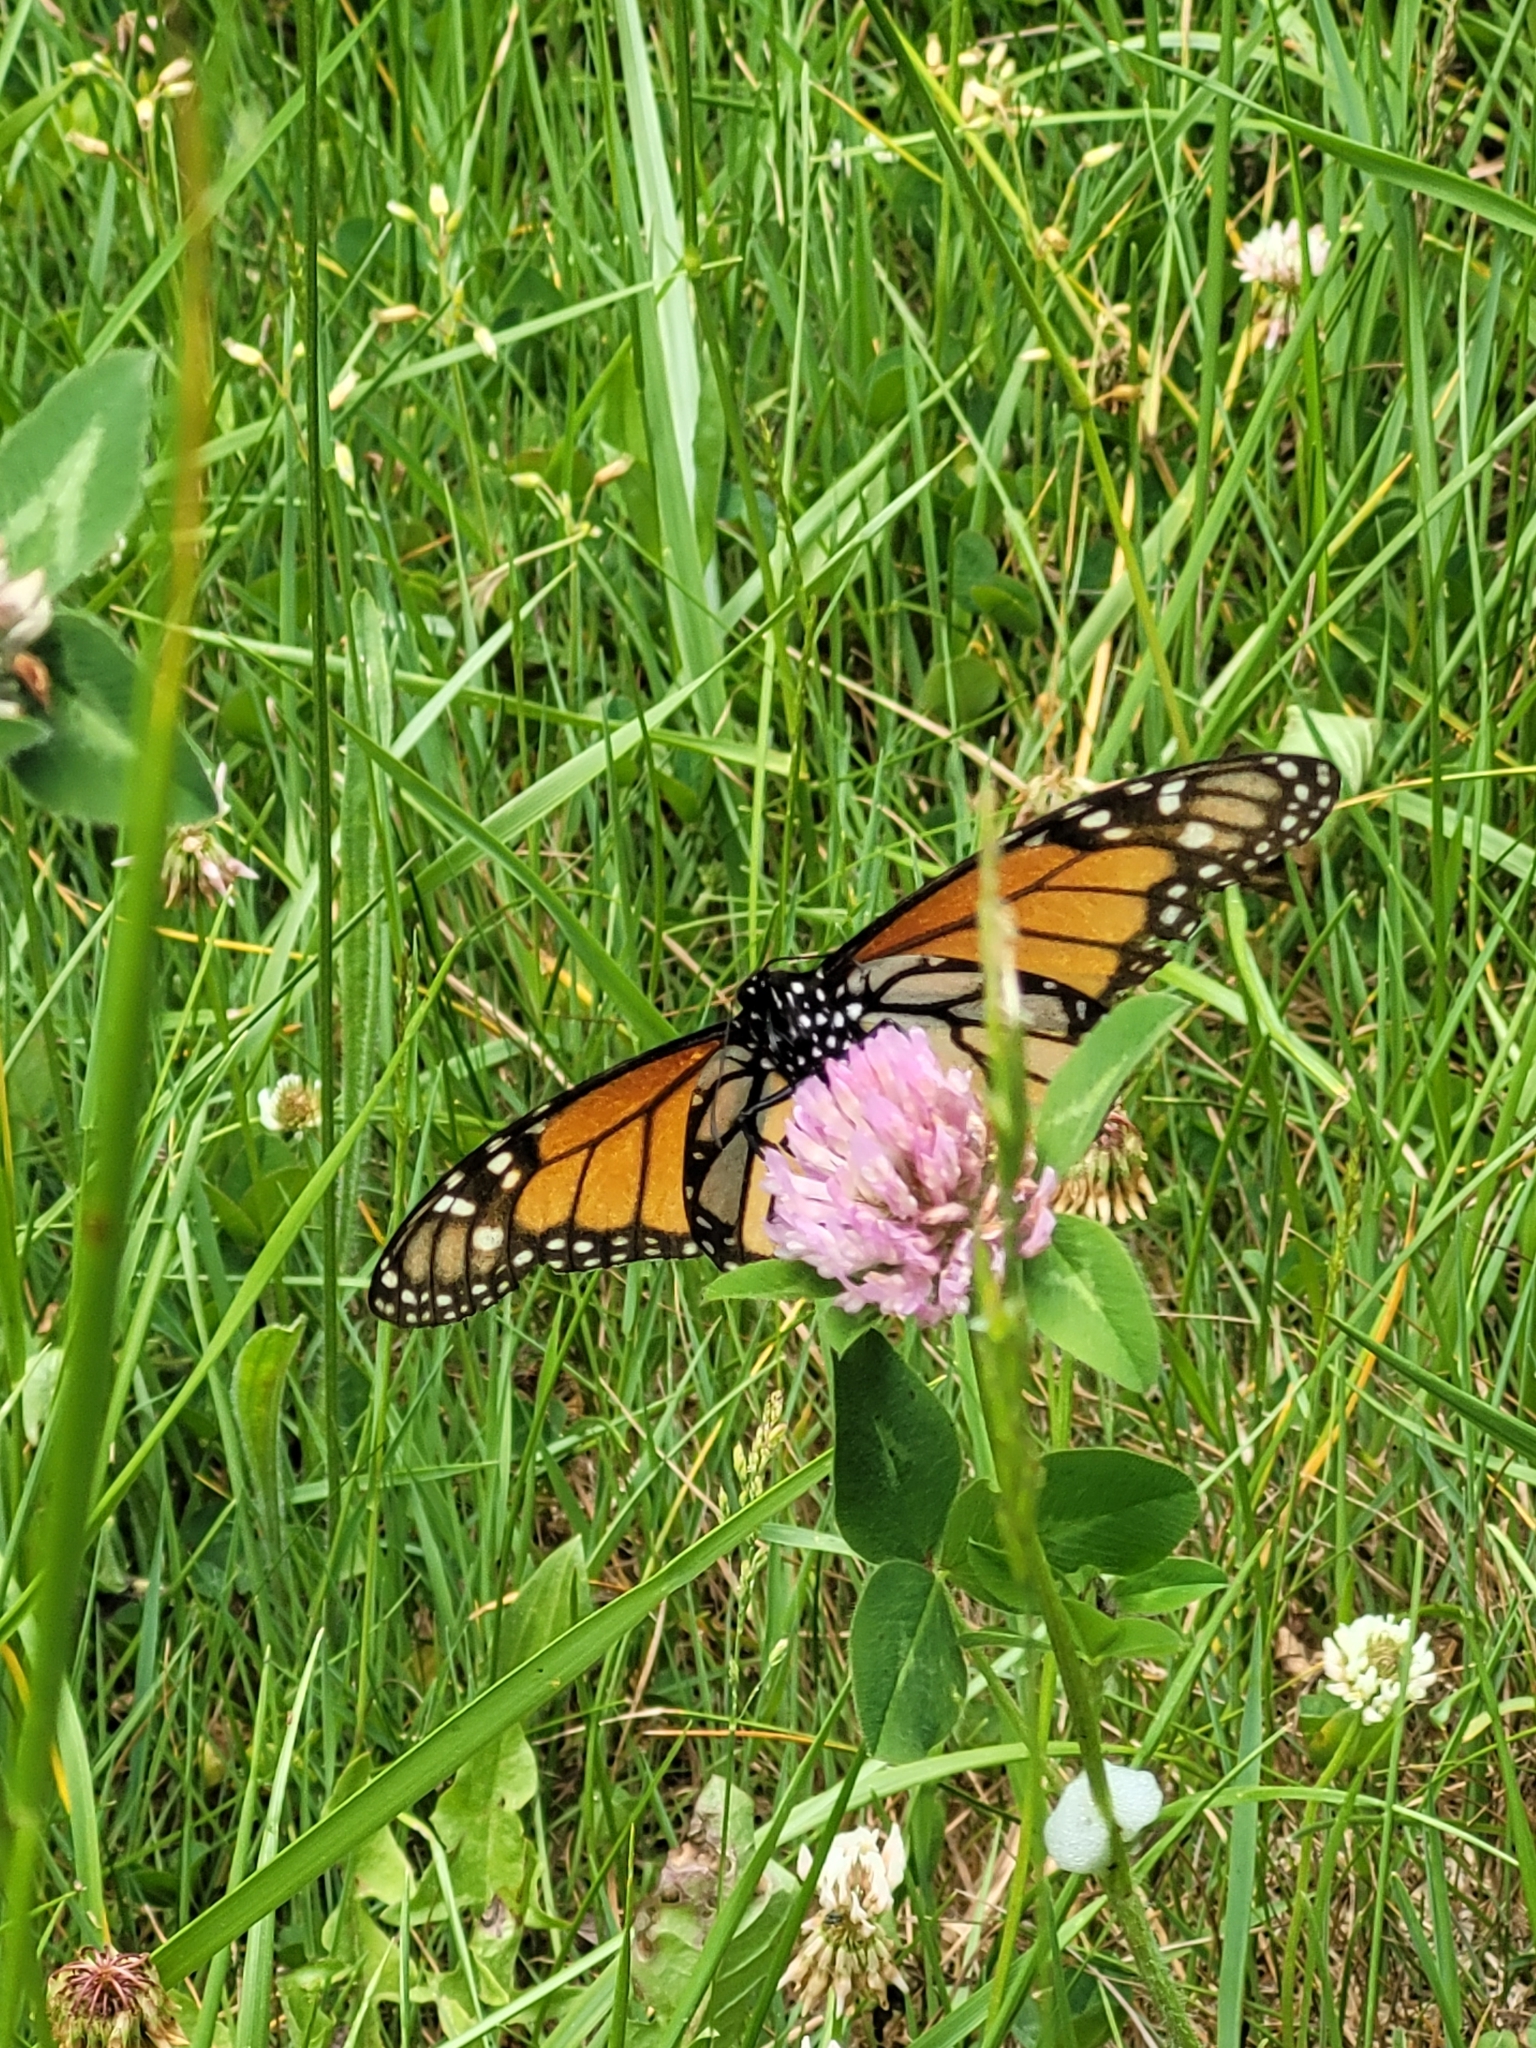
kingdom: Animalia
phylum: Arthropoda
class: Insecta
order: Lepidoptera
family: Nymphalidae
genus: Danaus
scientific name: Danaus plexippus
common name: Monarch
